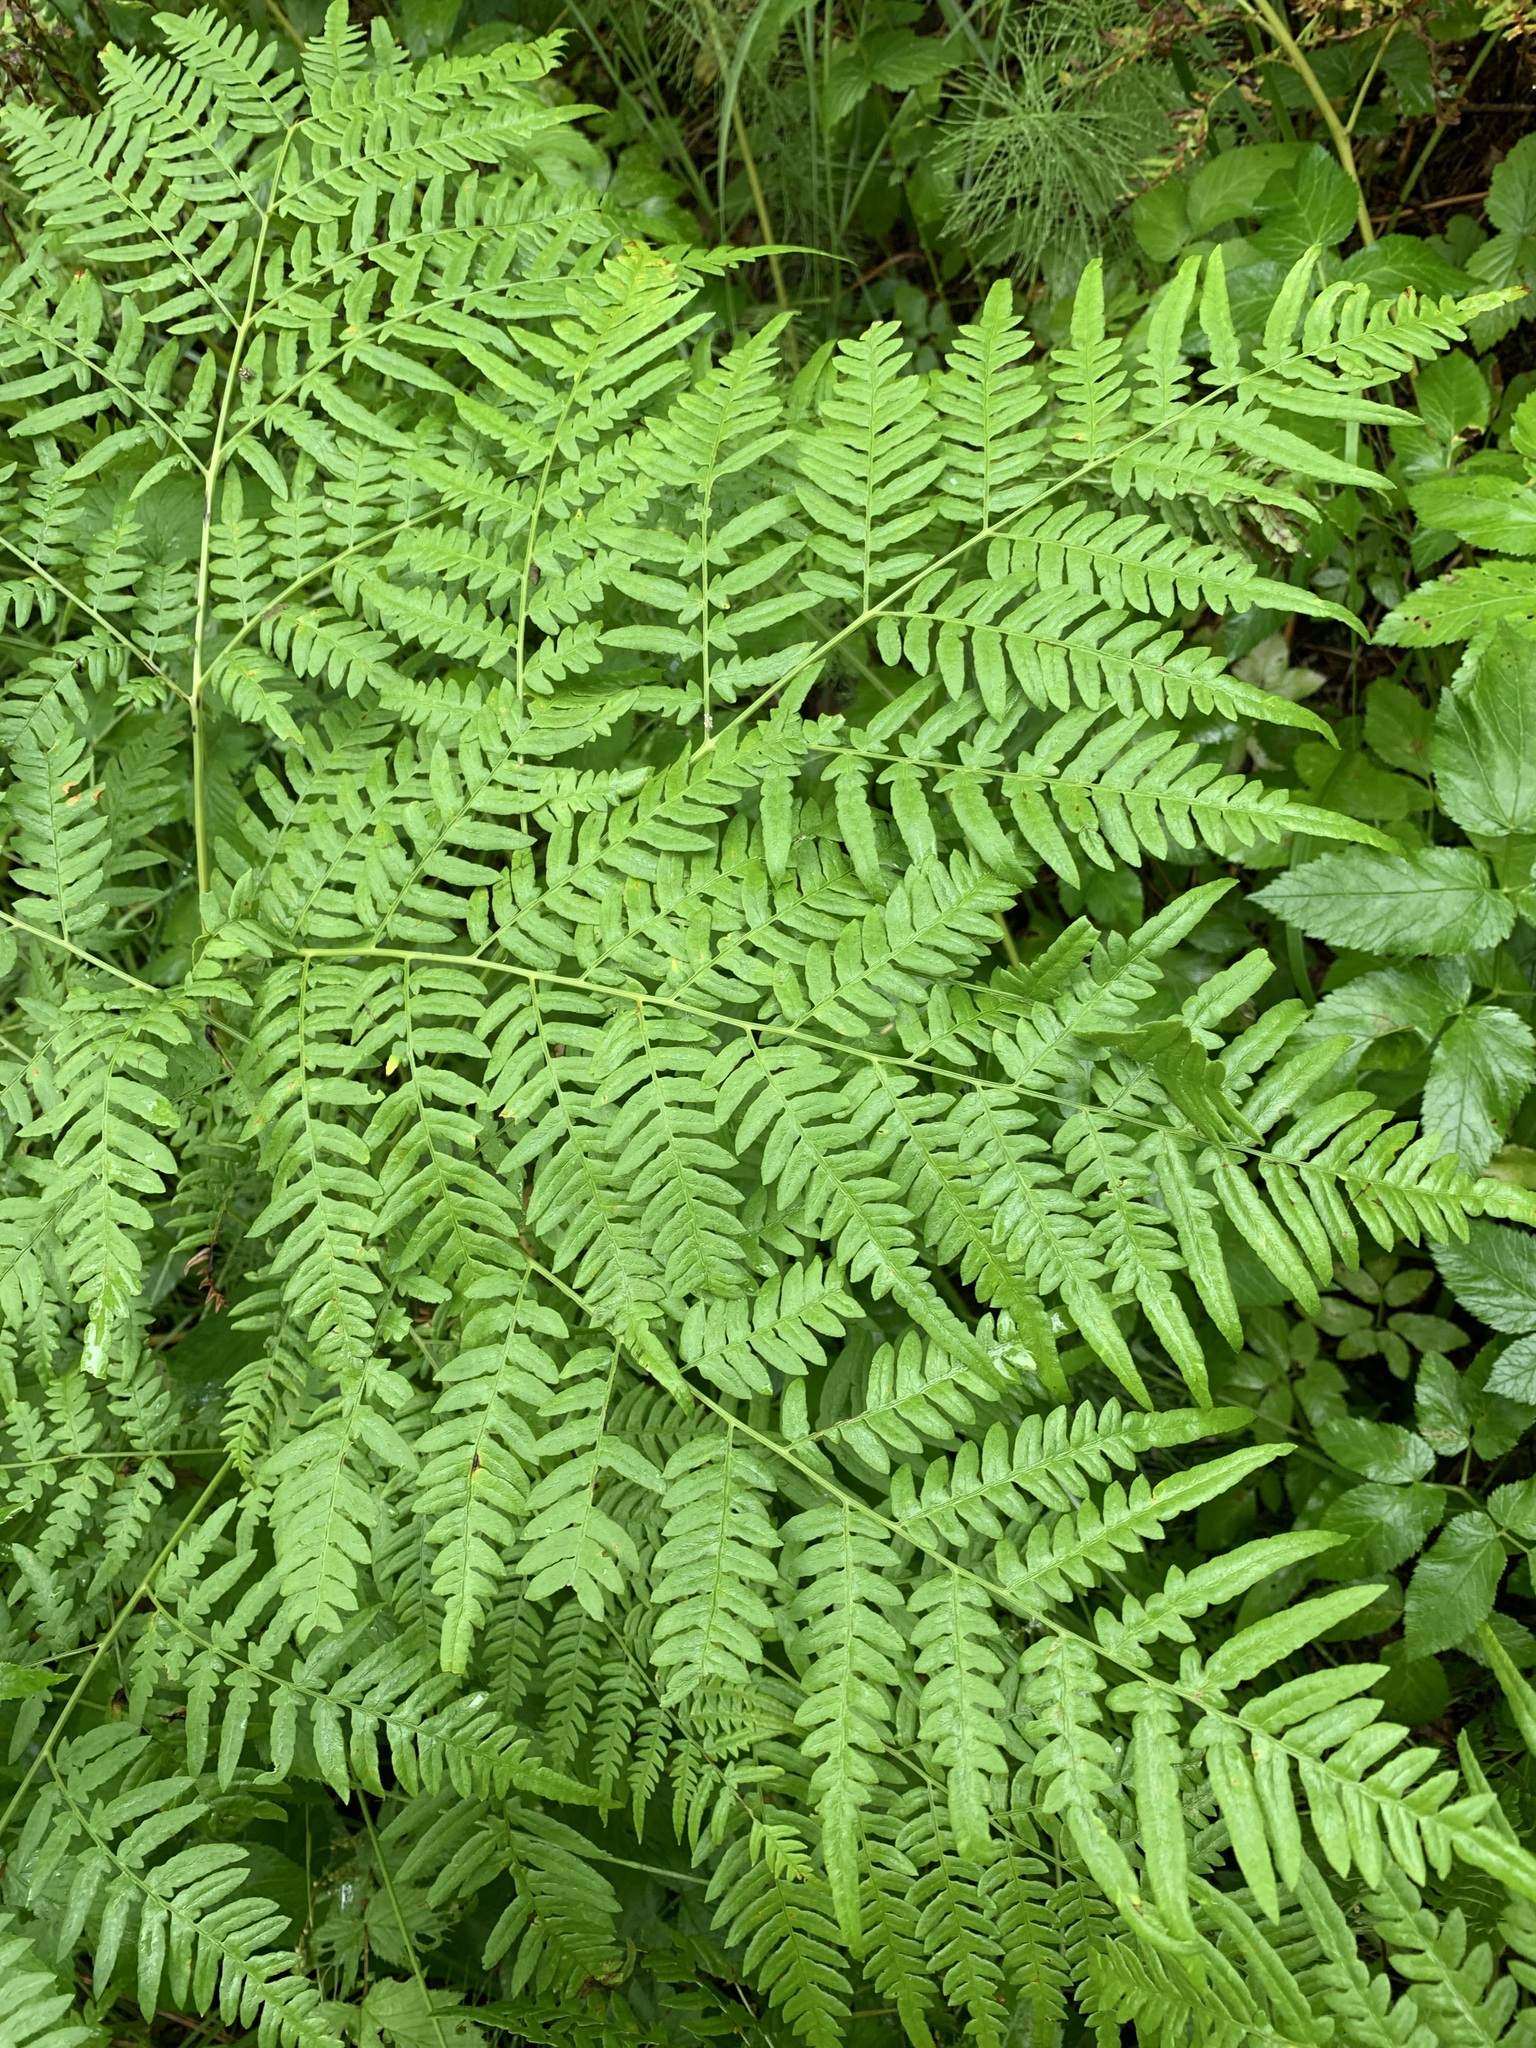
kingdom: Plantae
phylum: Tracheophyta
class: Polypodiopsida
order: Polypodiales
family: Dennstaedtiaceae
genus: Pteridium
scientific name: Pteridium aquilinum
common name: Bracken
